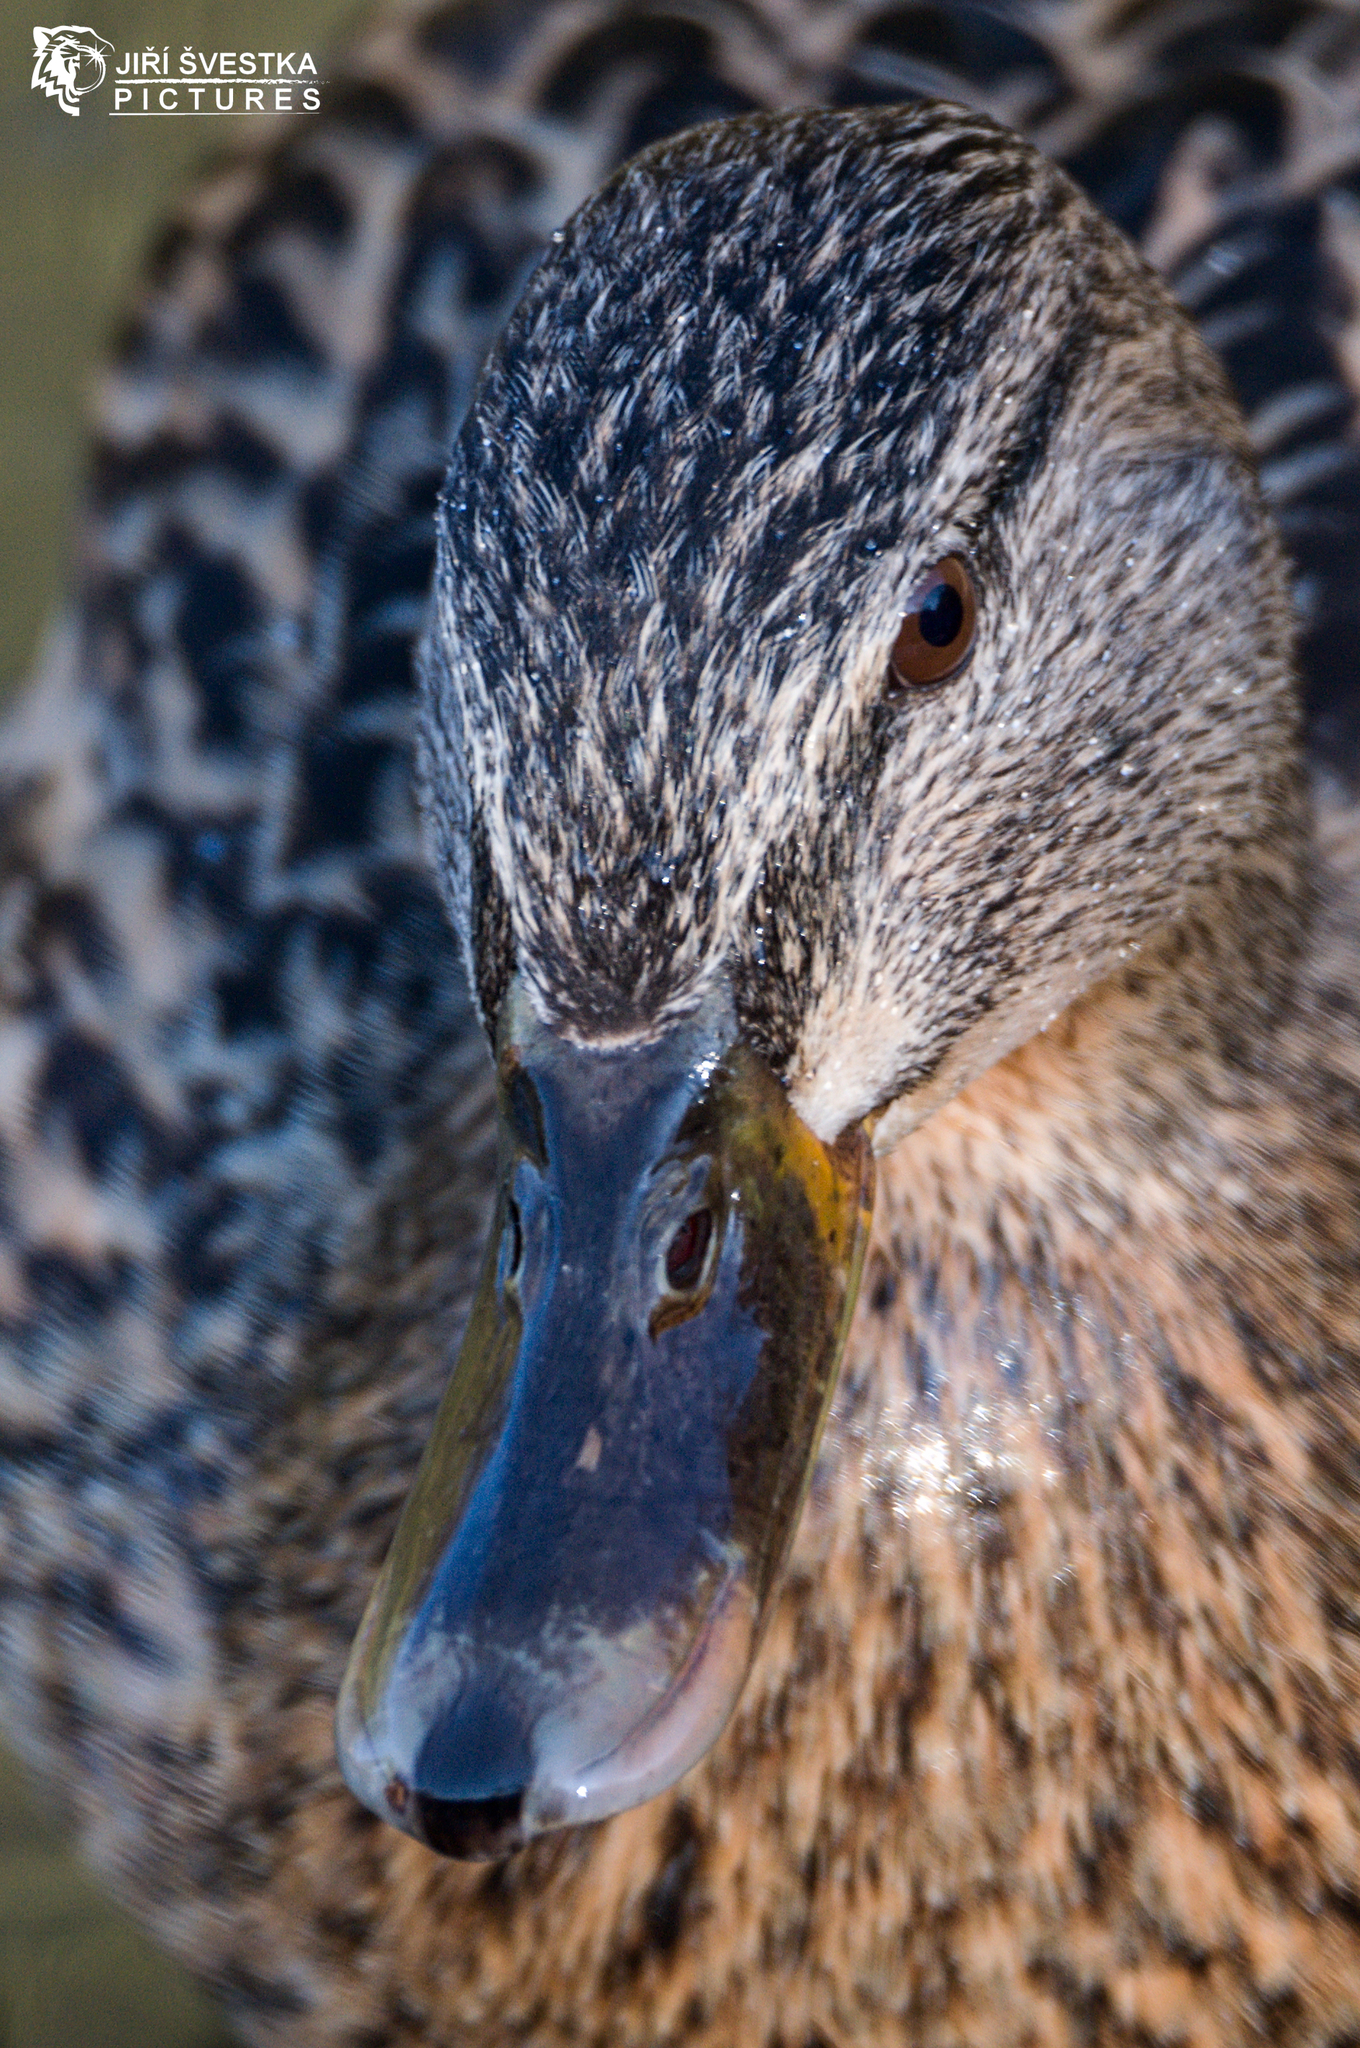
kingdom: Animalia
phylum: Chordata
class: Aves
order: Anseriformes
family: Anatidae
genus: Anas
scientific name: Anas platyrhynchos
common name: Mallard
